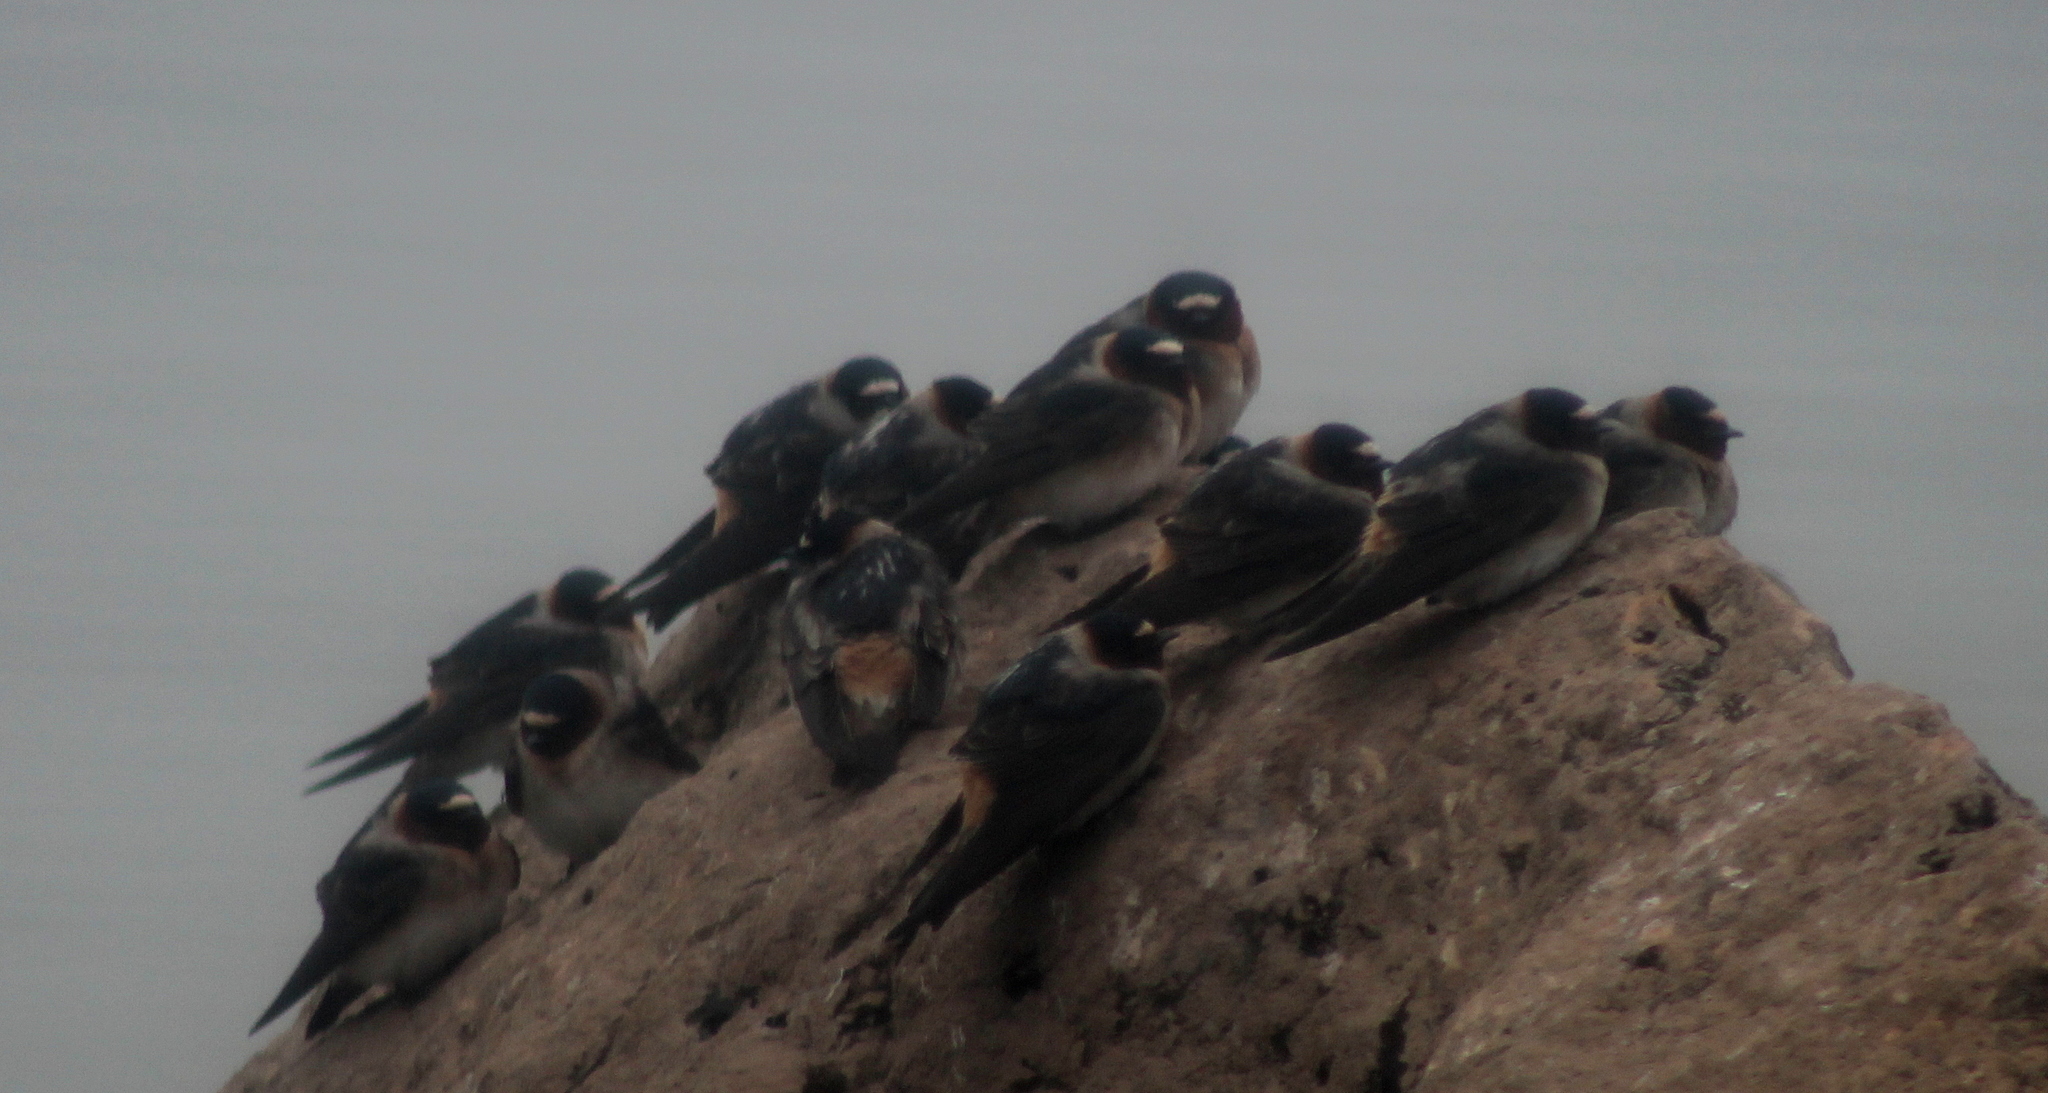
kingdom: Animalia
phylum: Chordata
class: Aves
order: Passeriformes
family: Hirundinidae
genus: Petrochelidon
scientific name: Petrochelidon pyrrhonota
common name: American cliff swallow
